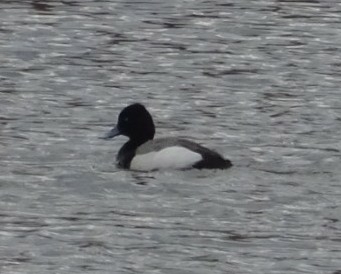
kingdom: Animalia
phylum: Chordata
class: Aves
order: Anseriformes
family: Anatidae
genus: Aythya
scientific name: Aythya affinis
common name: Lesser scaup
